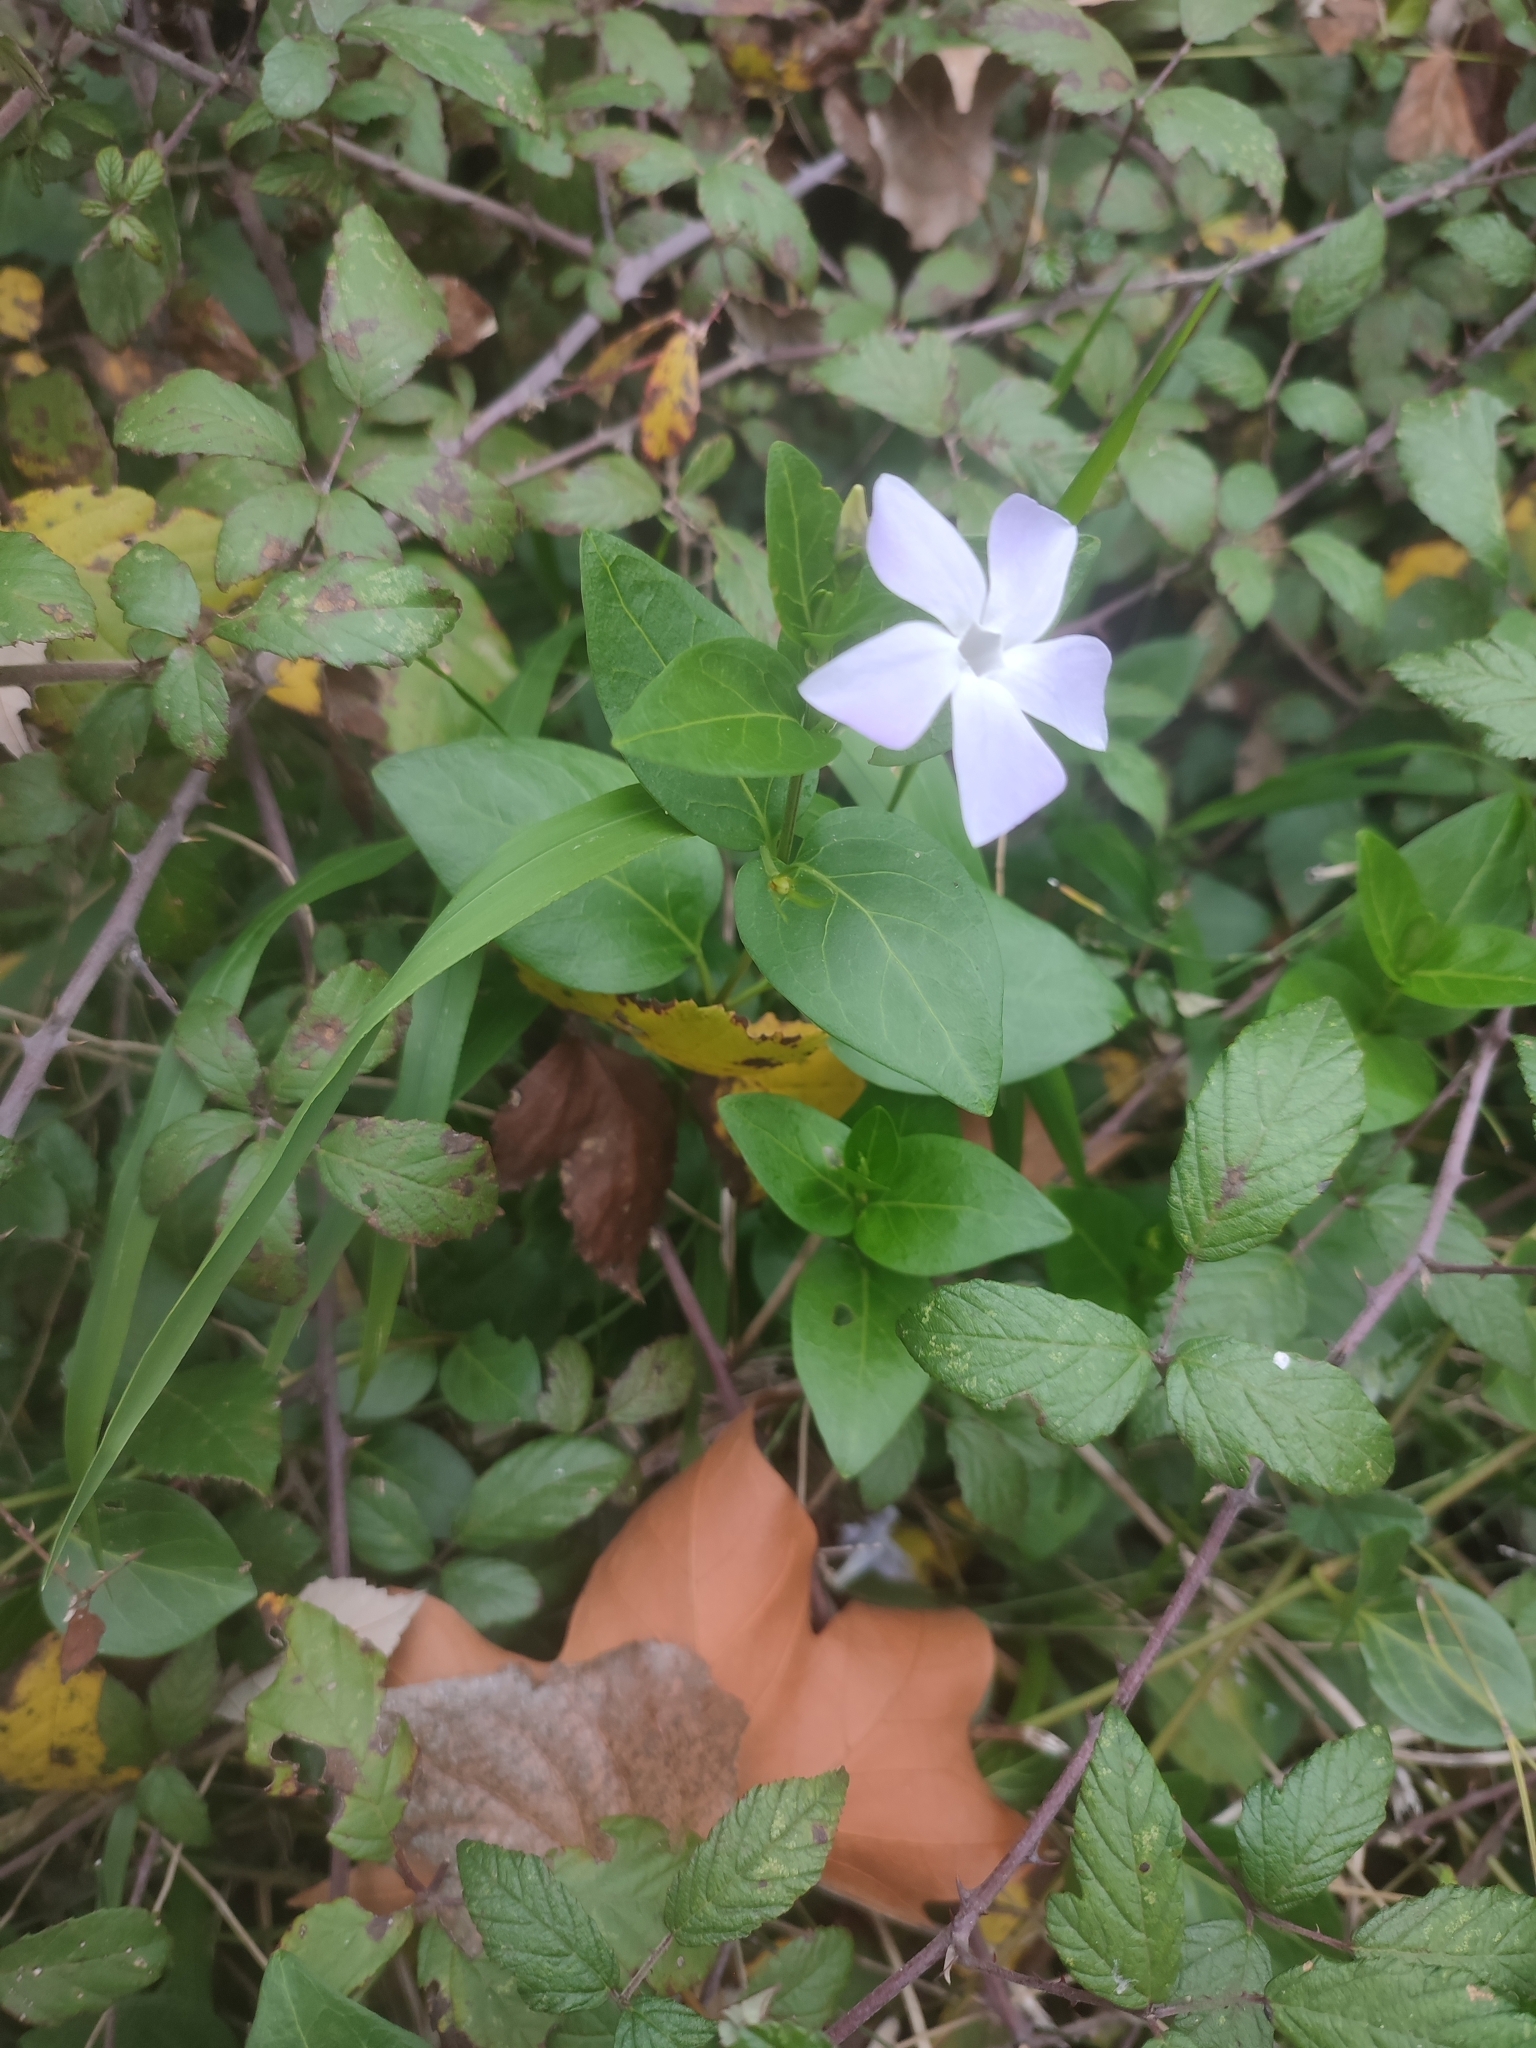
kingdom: Plantae
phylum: Tracheophyta
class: Magnoliopsida
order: Gentianales
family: Apocynaceae
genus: Vinca
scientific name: Vinca difformis
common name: Intermediate periwinkle
